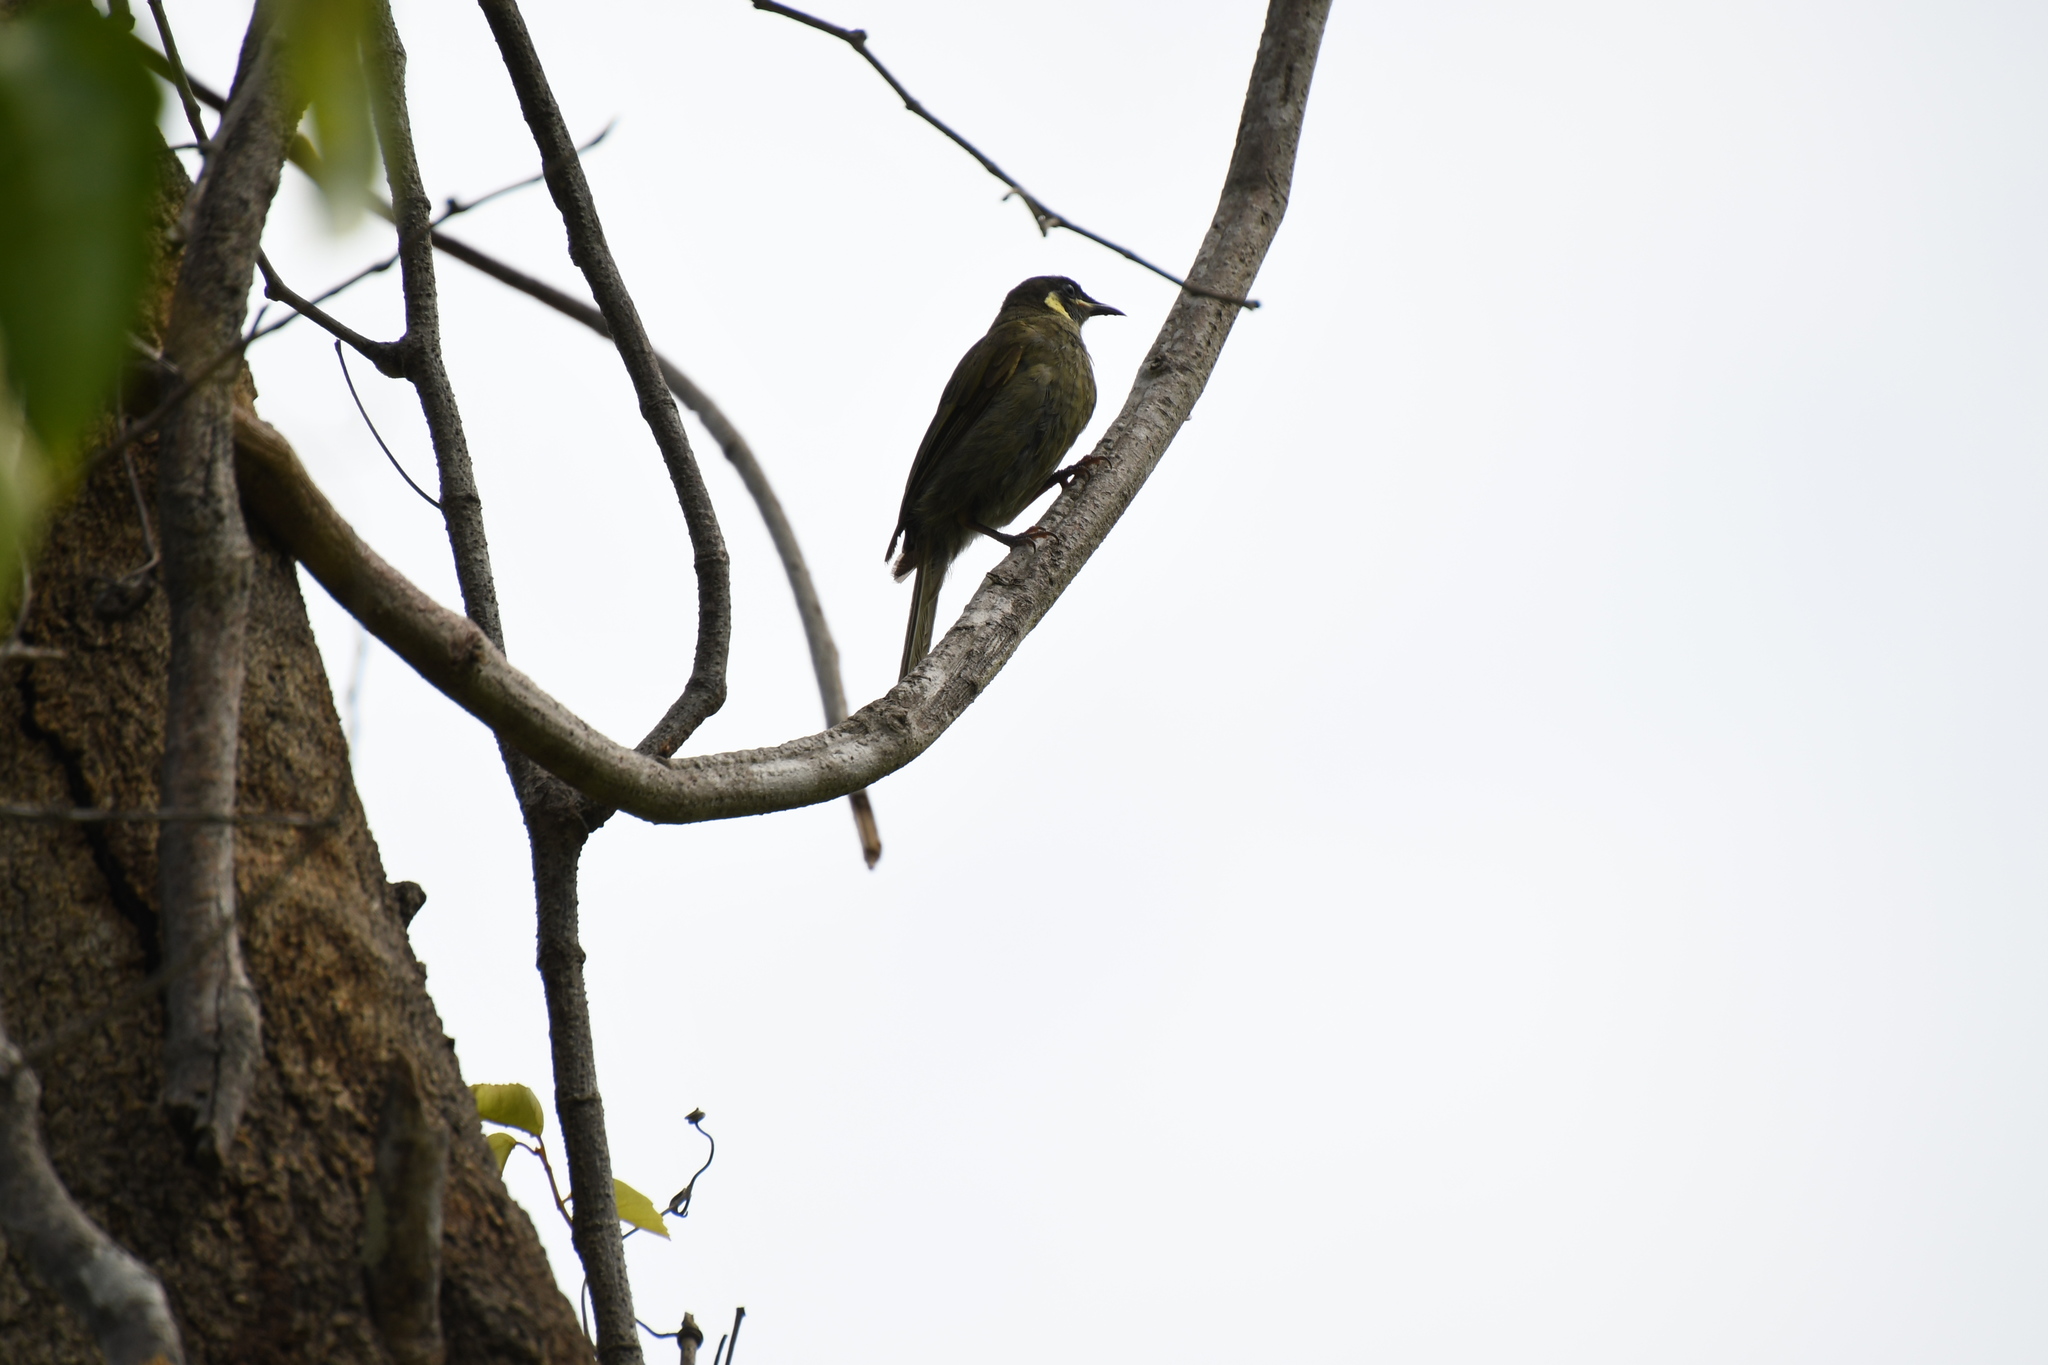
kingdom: Animalia
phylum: Chordata
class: Aves
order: Passeriformes
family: Meliphagidae
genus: Meliphaga
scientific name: Meliphaga lewinii
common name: Lewin's honeyeater
